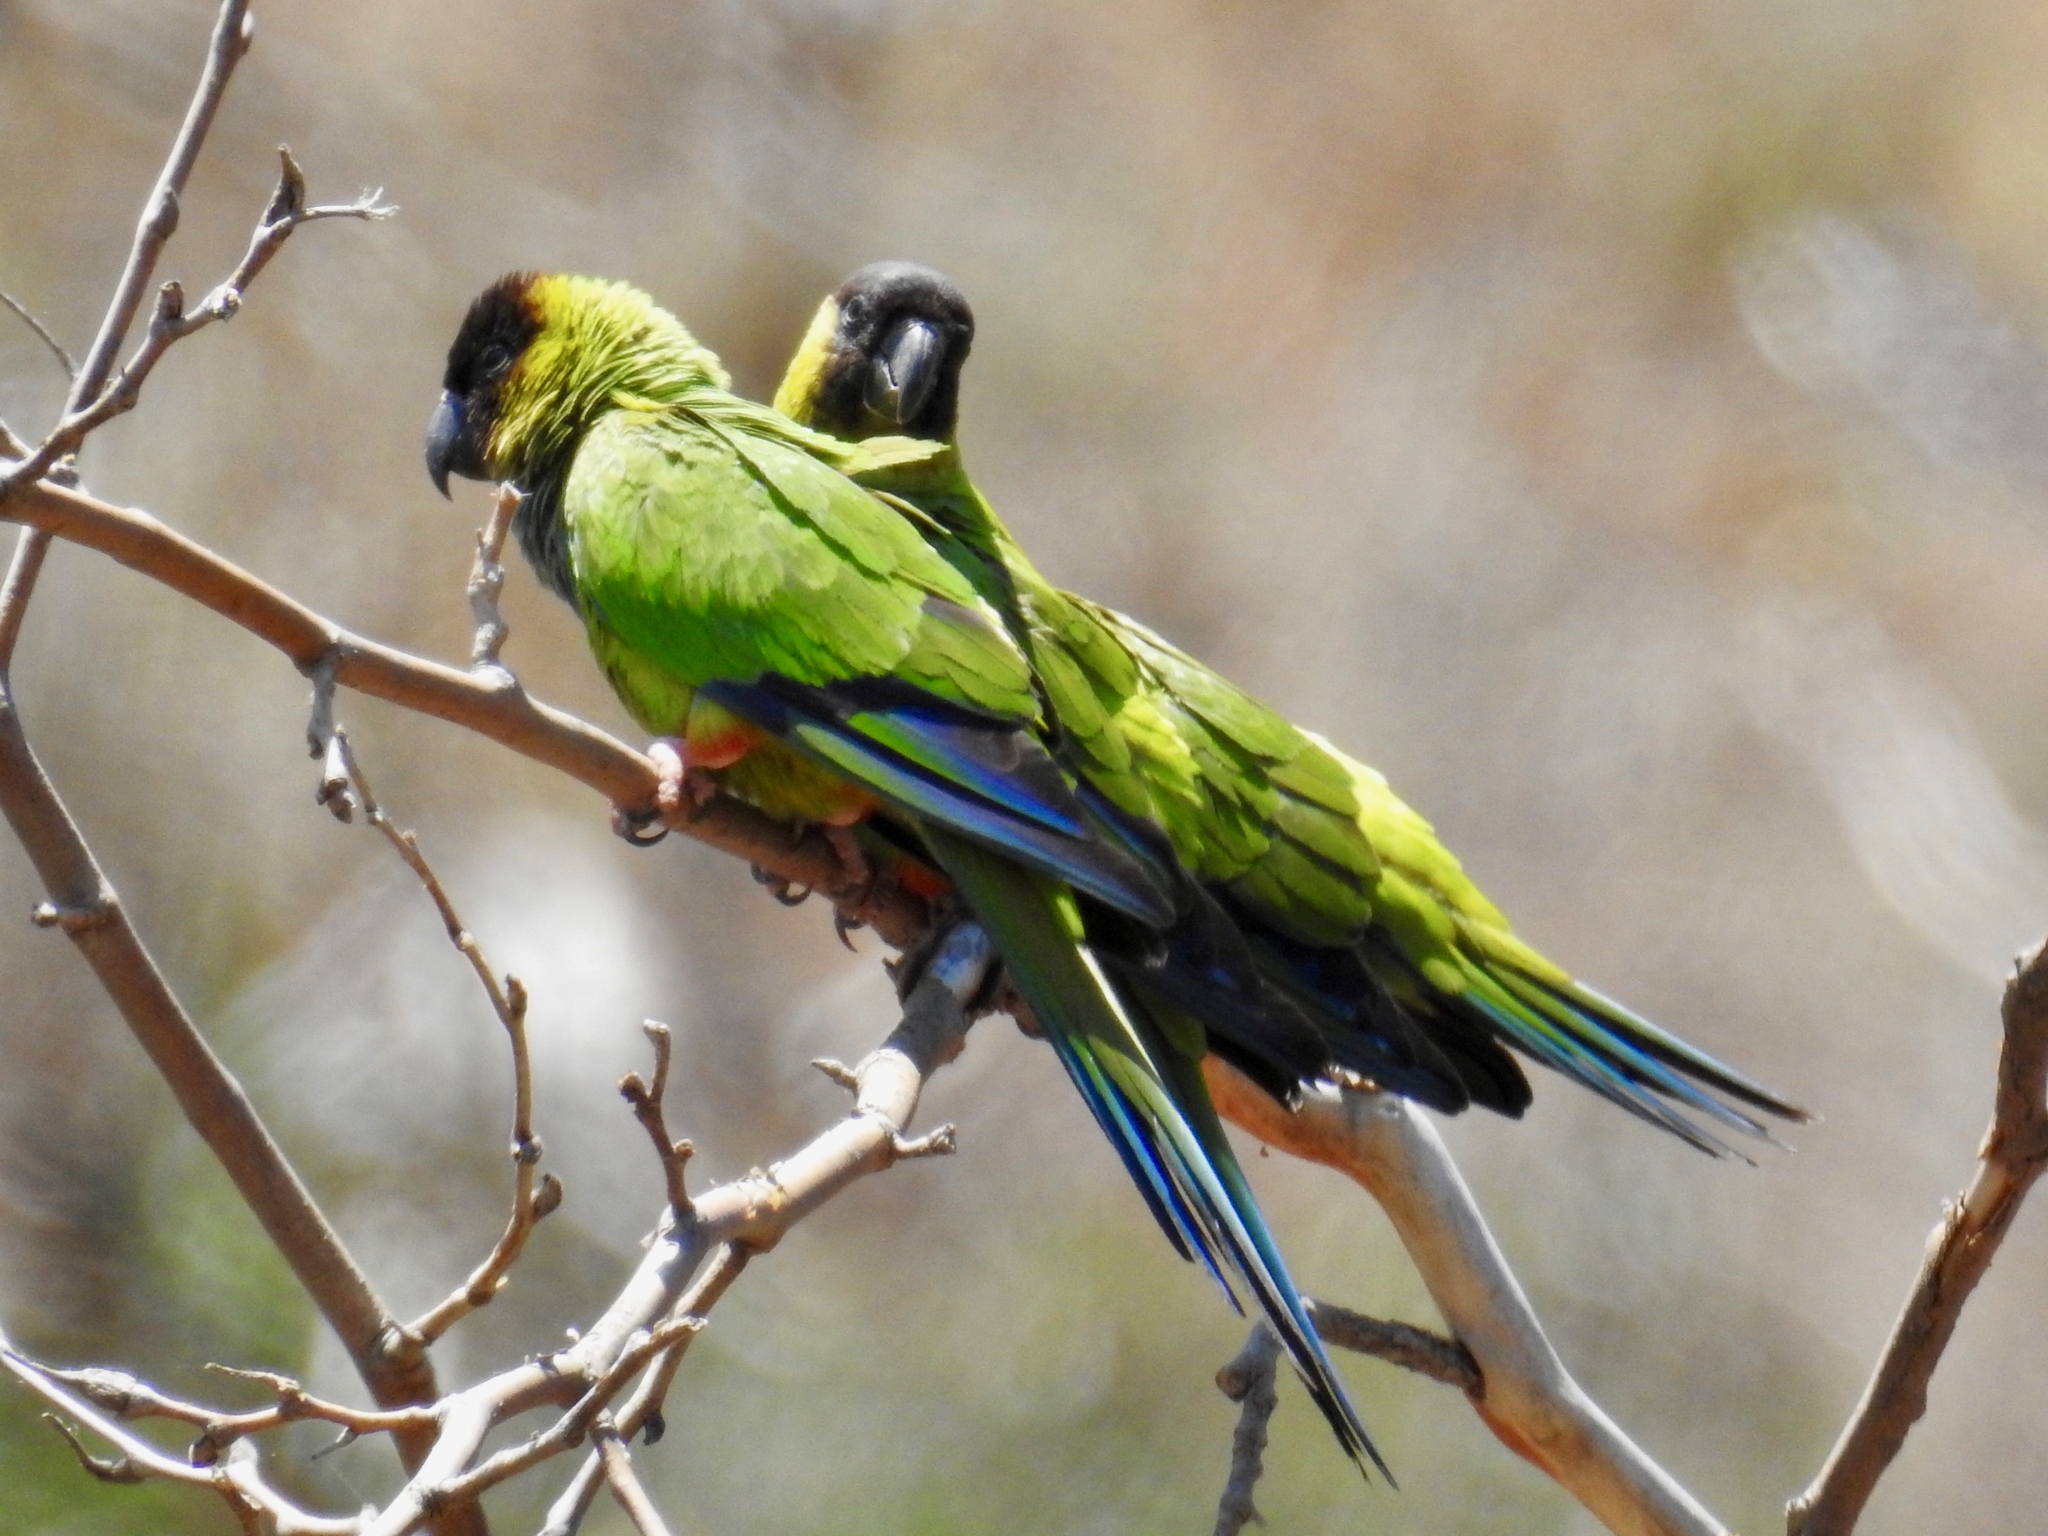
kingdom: Animalia
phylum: Chordata
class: Aves
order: Psittaciformes
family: Psittacidae
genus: Nandayus
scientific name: Nandayus nenday
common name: Nanday parakeet
